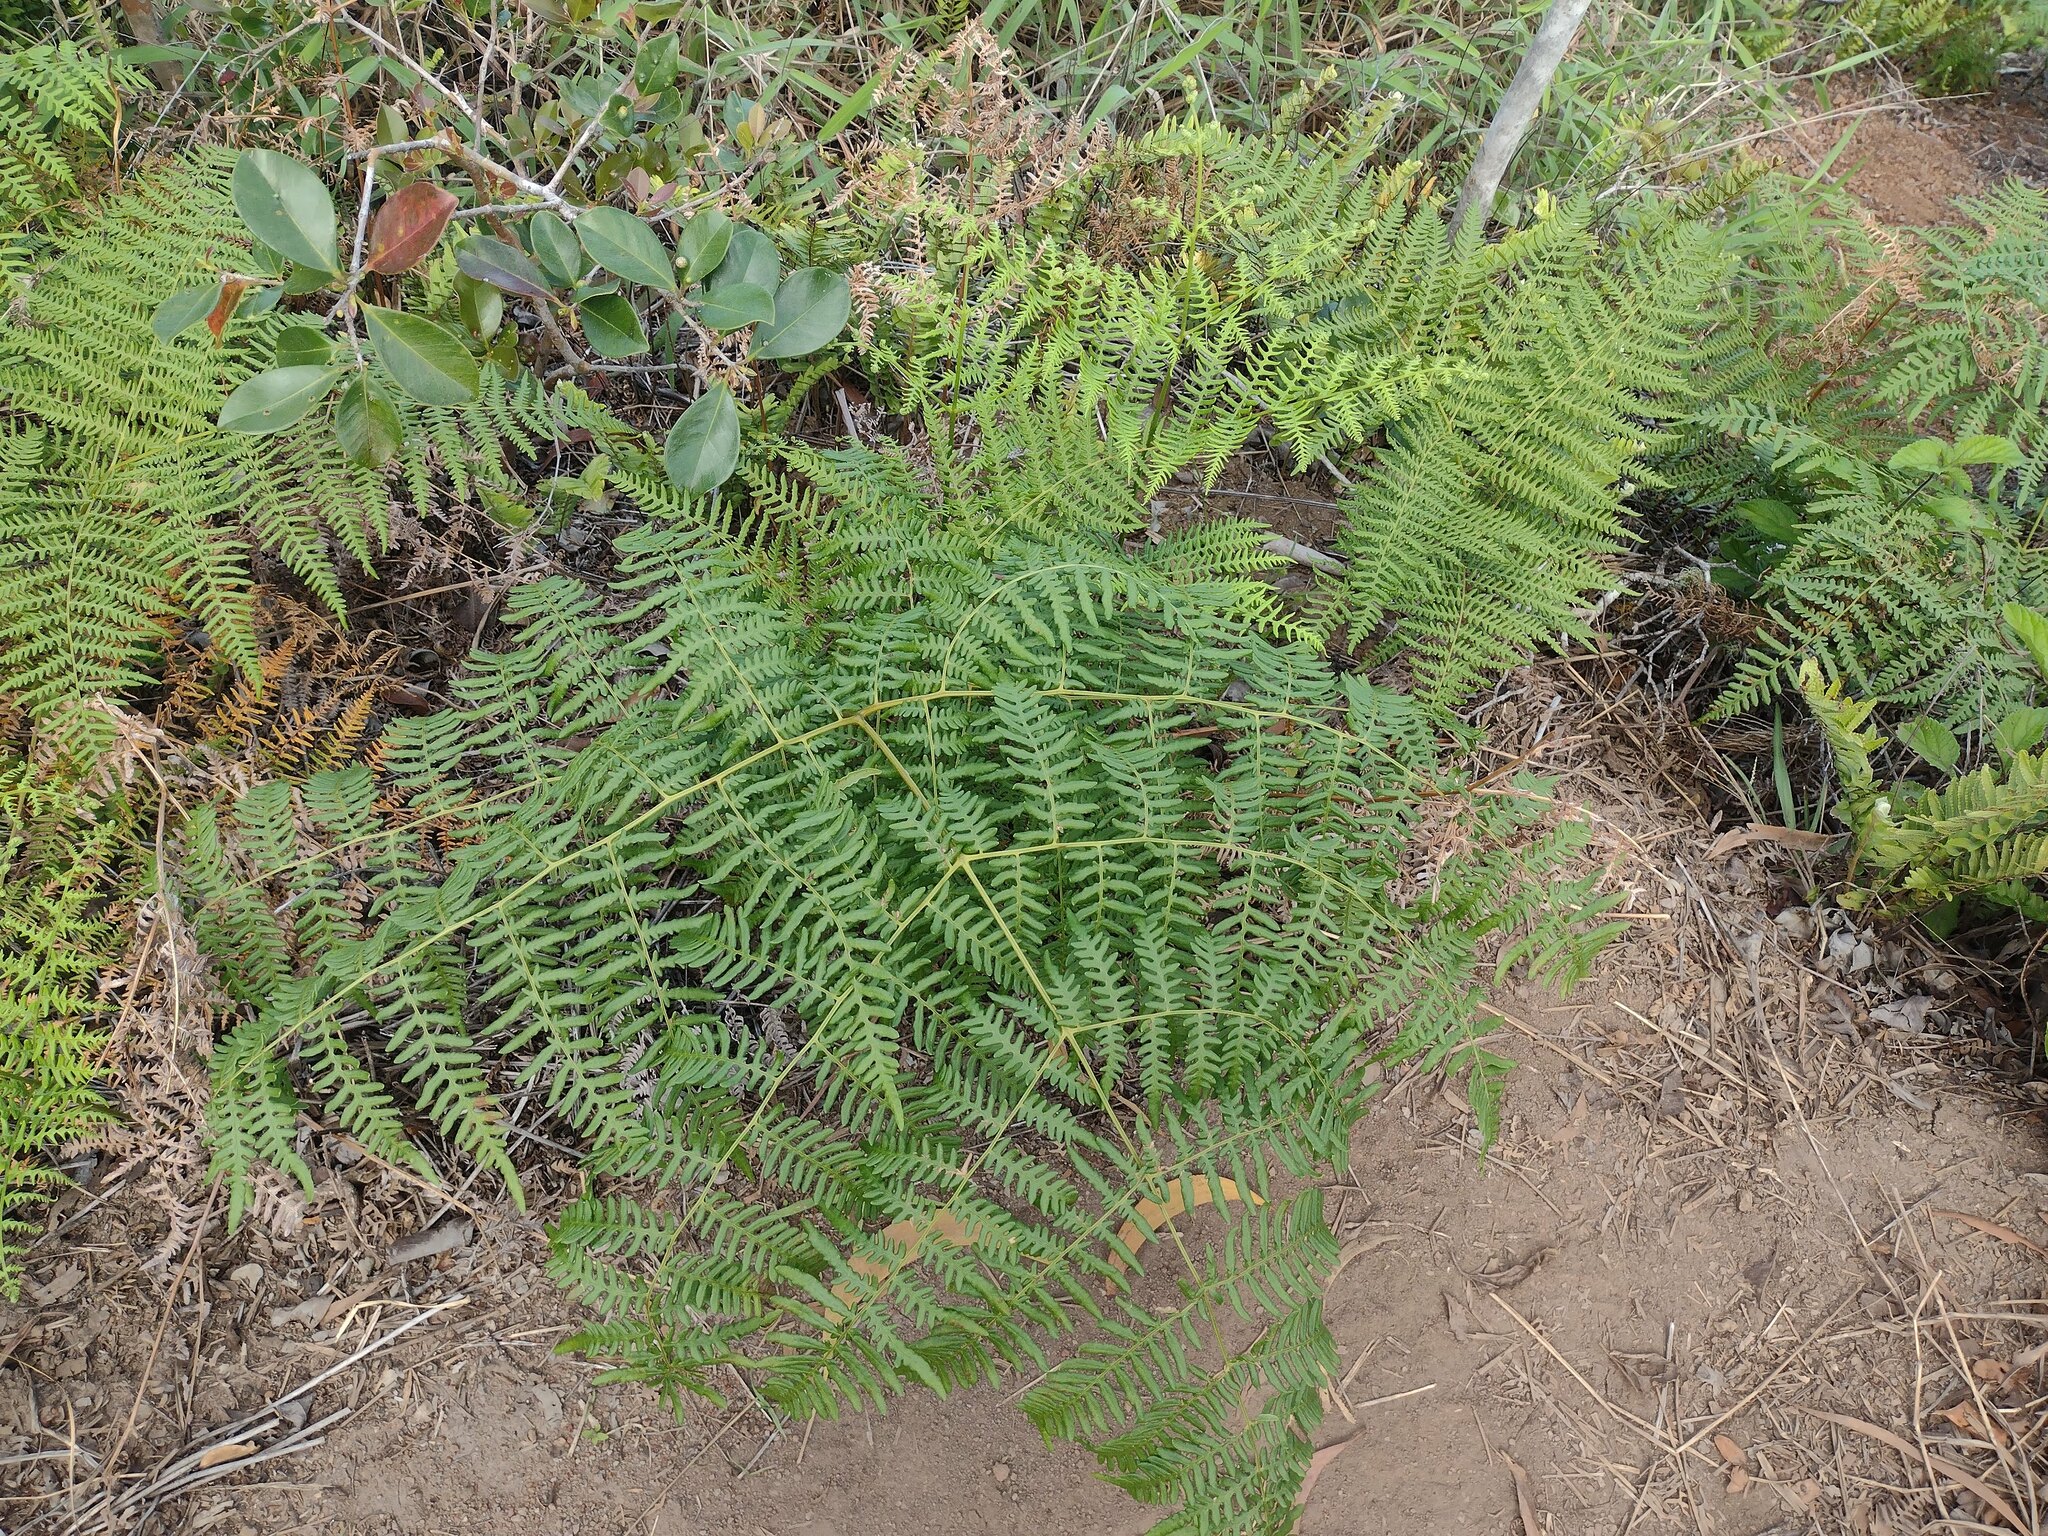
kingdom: Plantae
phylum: Tracheophyta
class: Polypodiopsida
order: Polypodiales
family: Dennstaedtiaceae
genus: Pteridium
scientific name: Pteridium aquilinum
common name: Bracken
